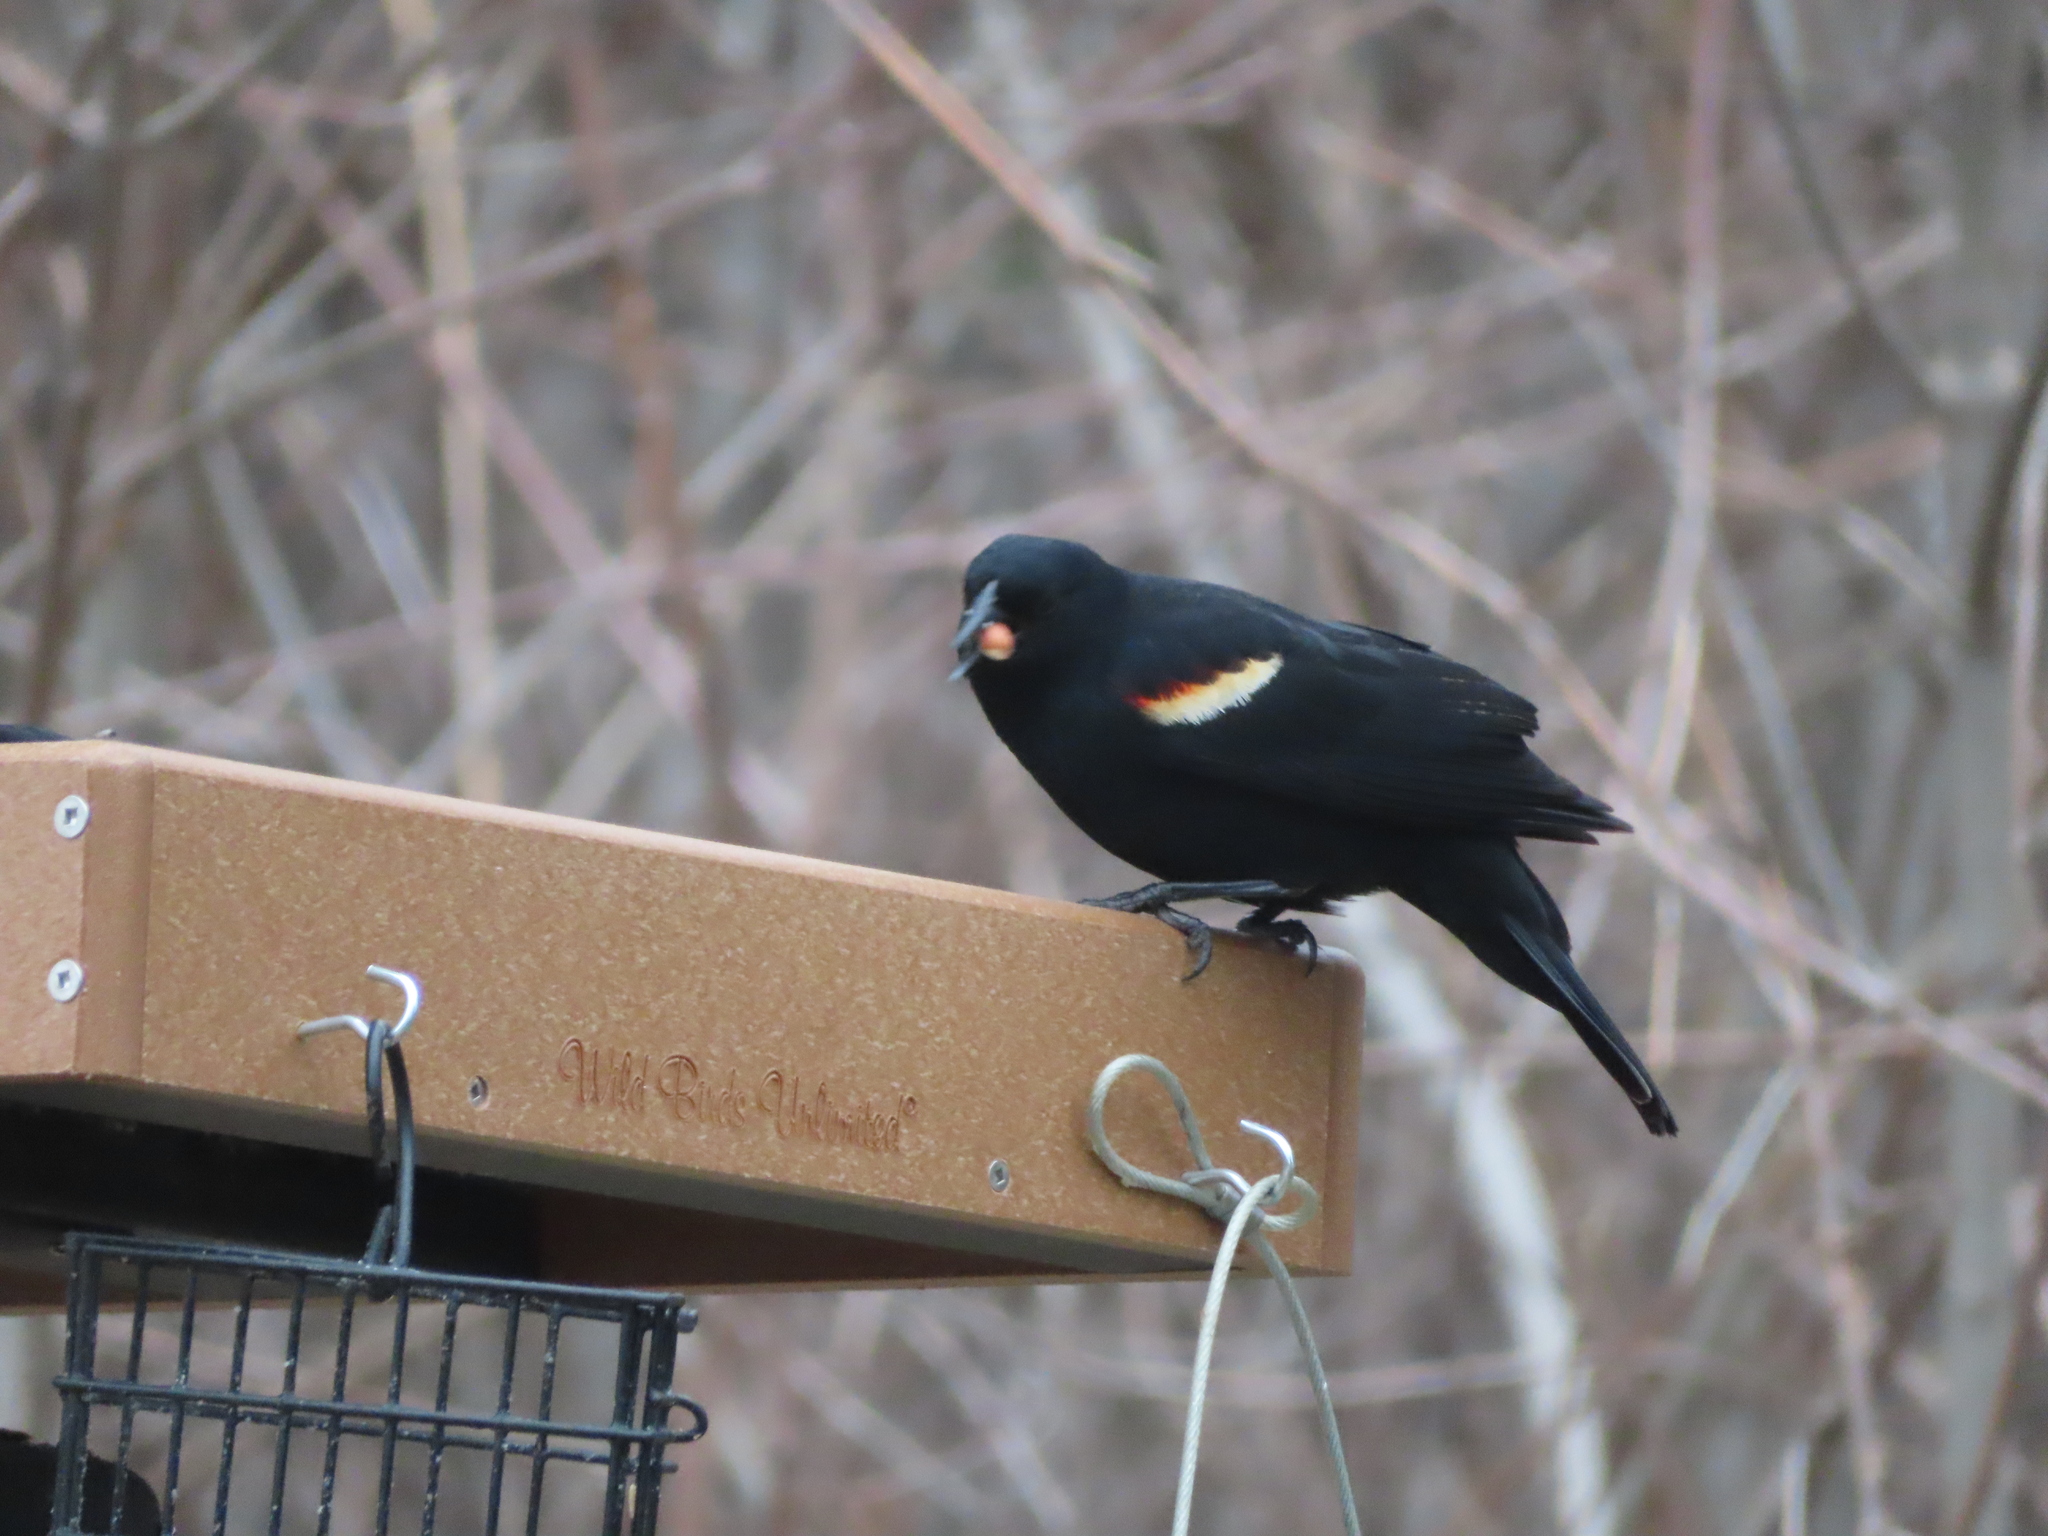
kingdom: Animalia
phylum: Chordata
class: Aves
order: Passeriformes
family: Icteridae
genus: Agelaius
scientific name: Agelaius phoeniceus
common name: Red-winged blackbird
